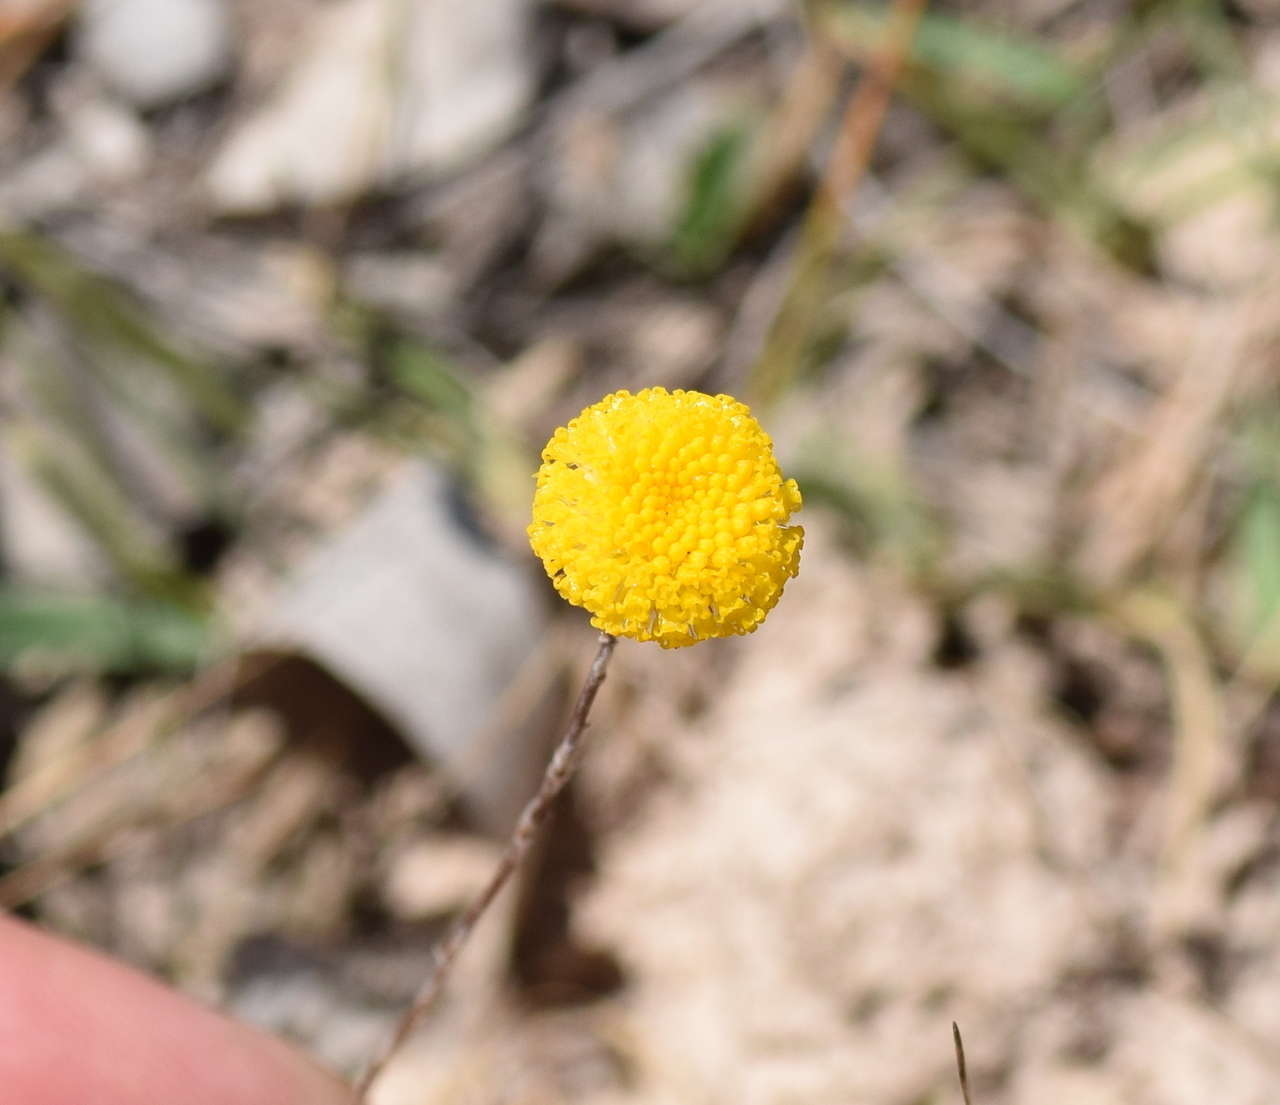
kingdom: Plantae
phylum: Tracheophyta
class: Magnoliopsida
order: Asterales
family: Asteraceae
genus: Leptorhynchos
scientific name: Leptorhynchos squamatus
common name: Scaly-buttons
